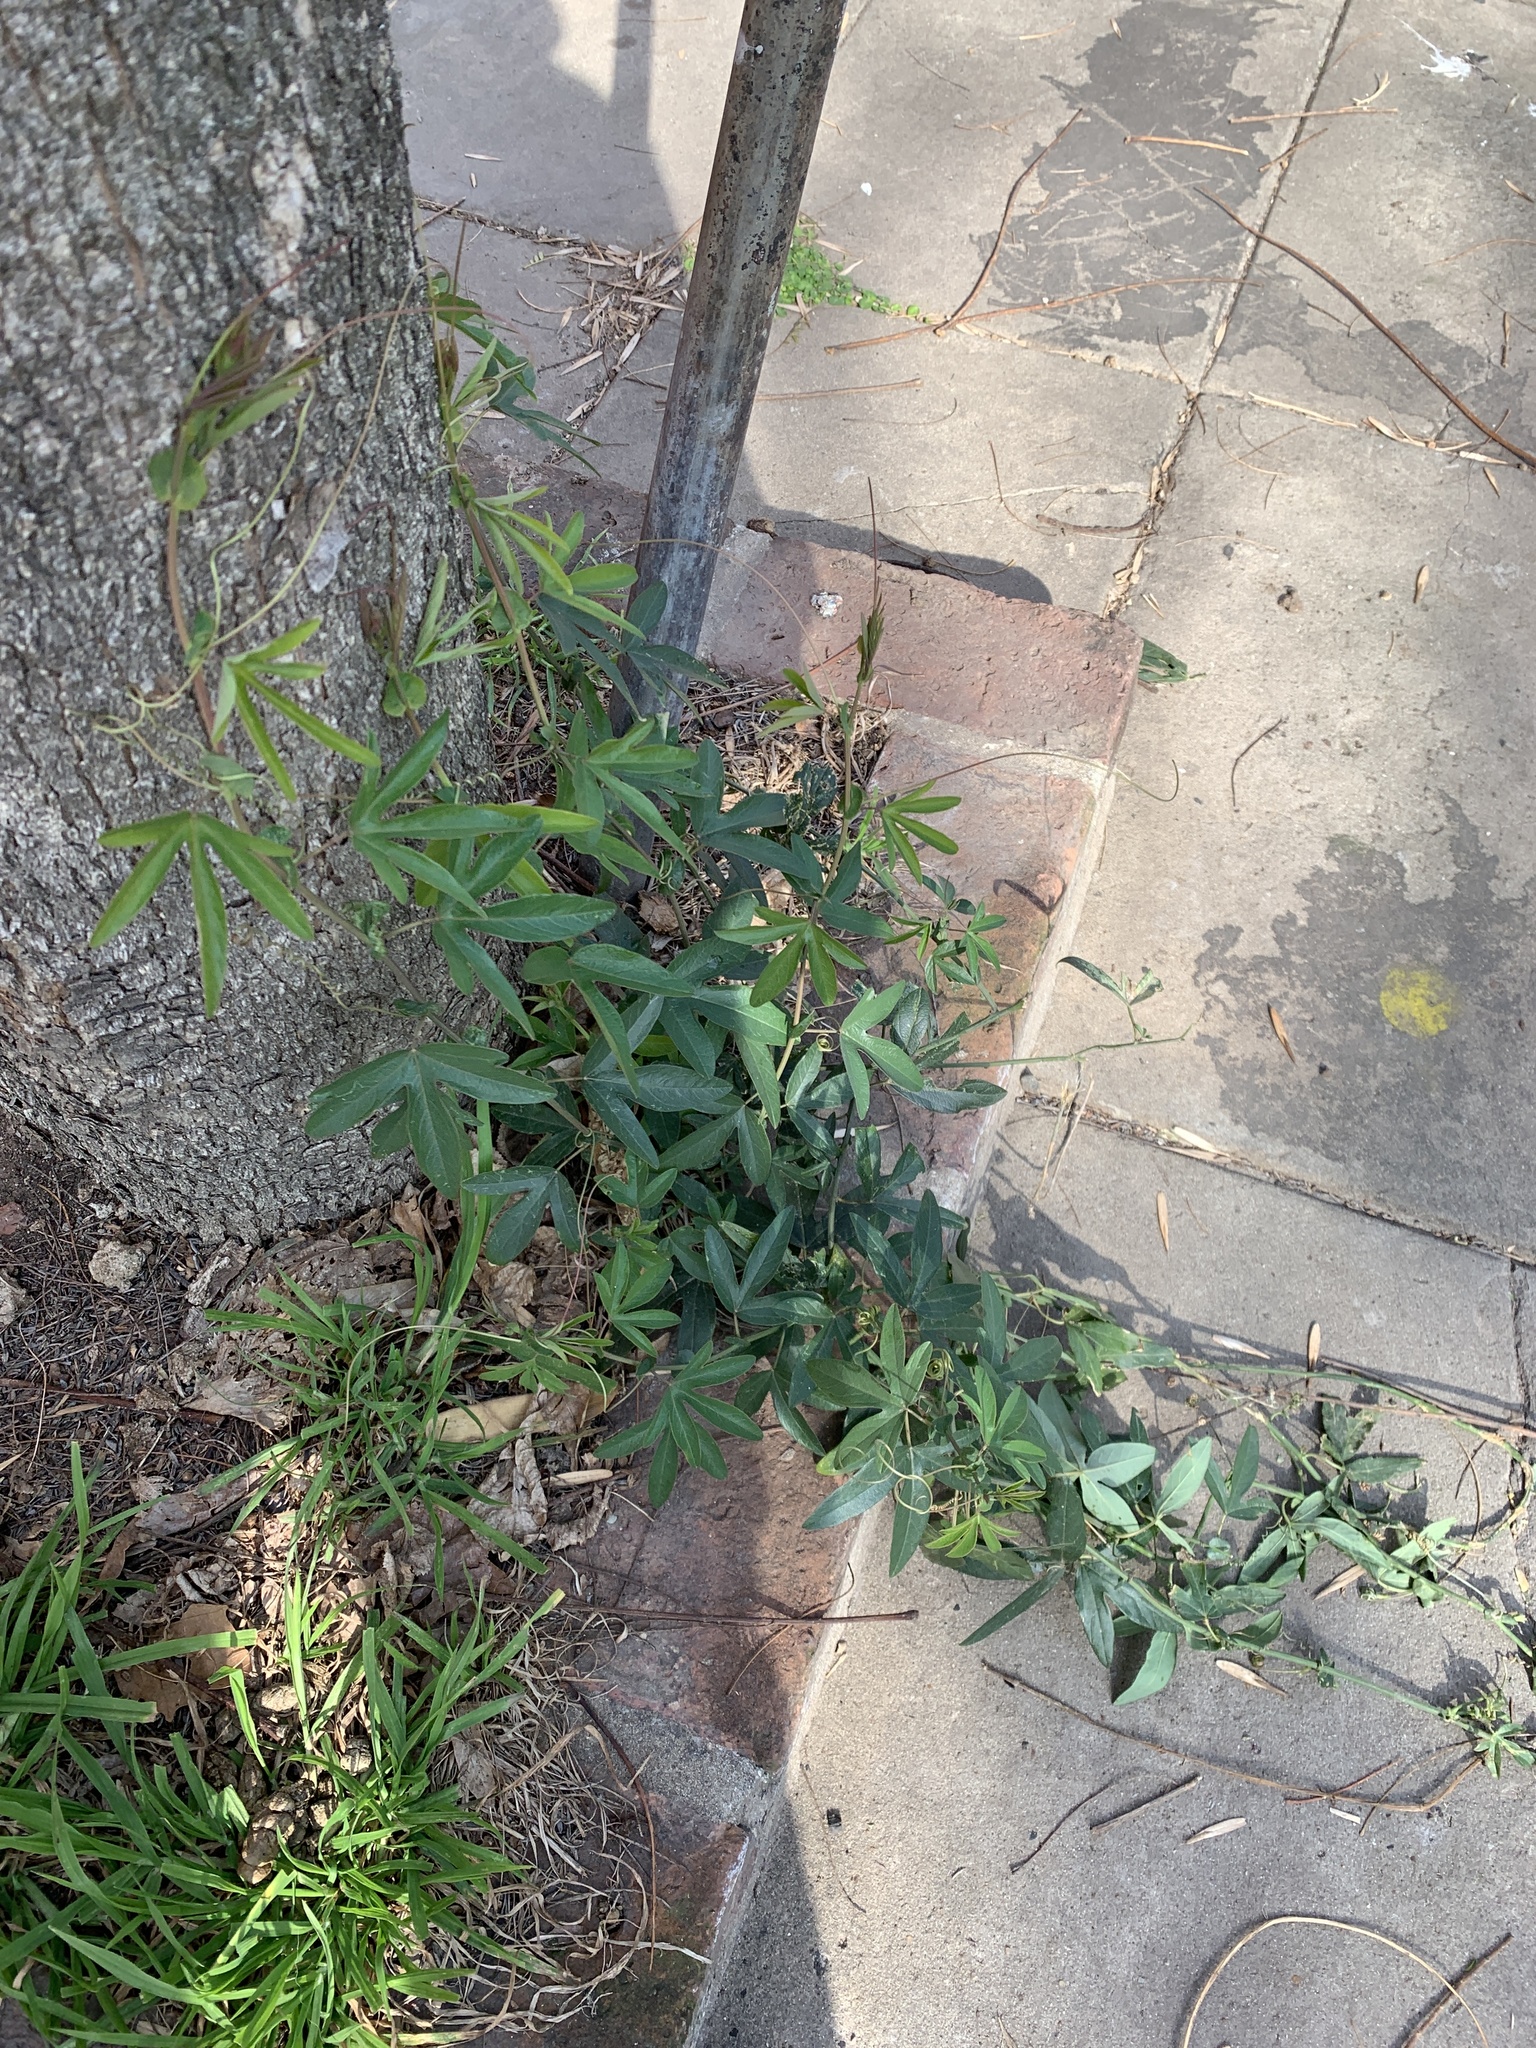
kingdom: Plantae
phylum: Tracheophyta
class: Magnoliopsida
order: Malpighiales
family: Passifloraceae
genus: Passiflora
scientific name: Passiflora caerulea
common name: Blue passionflower
